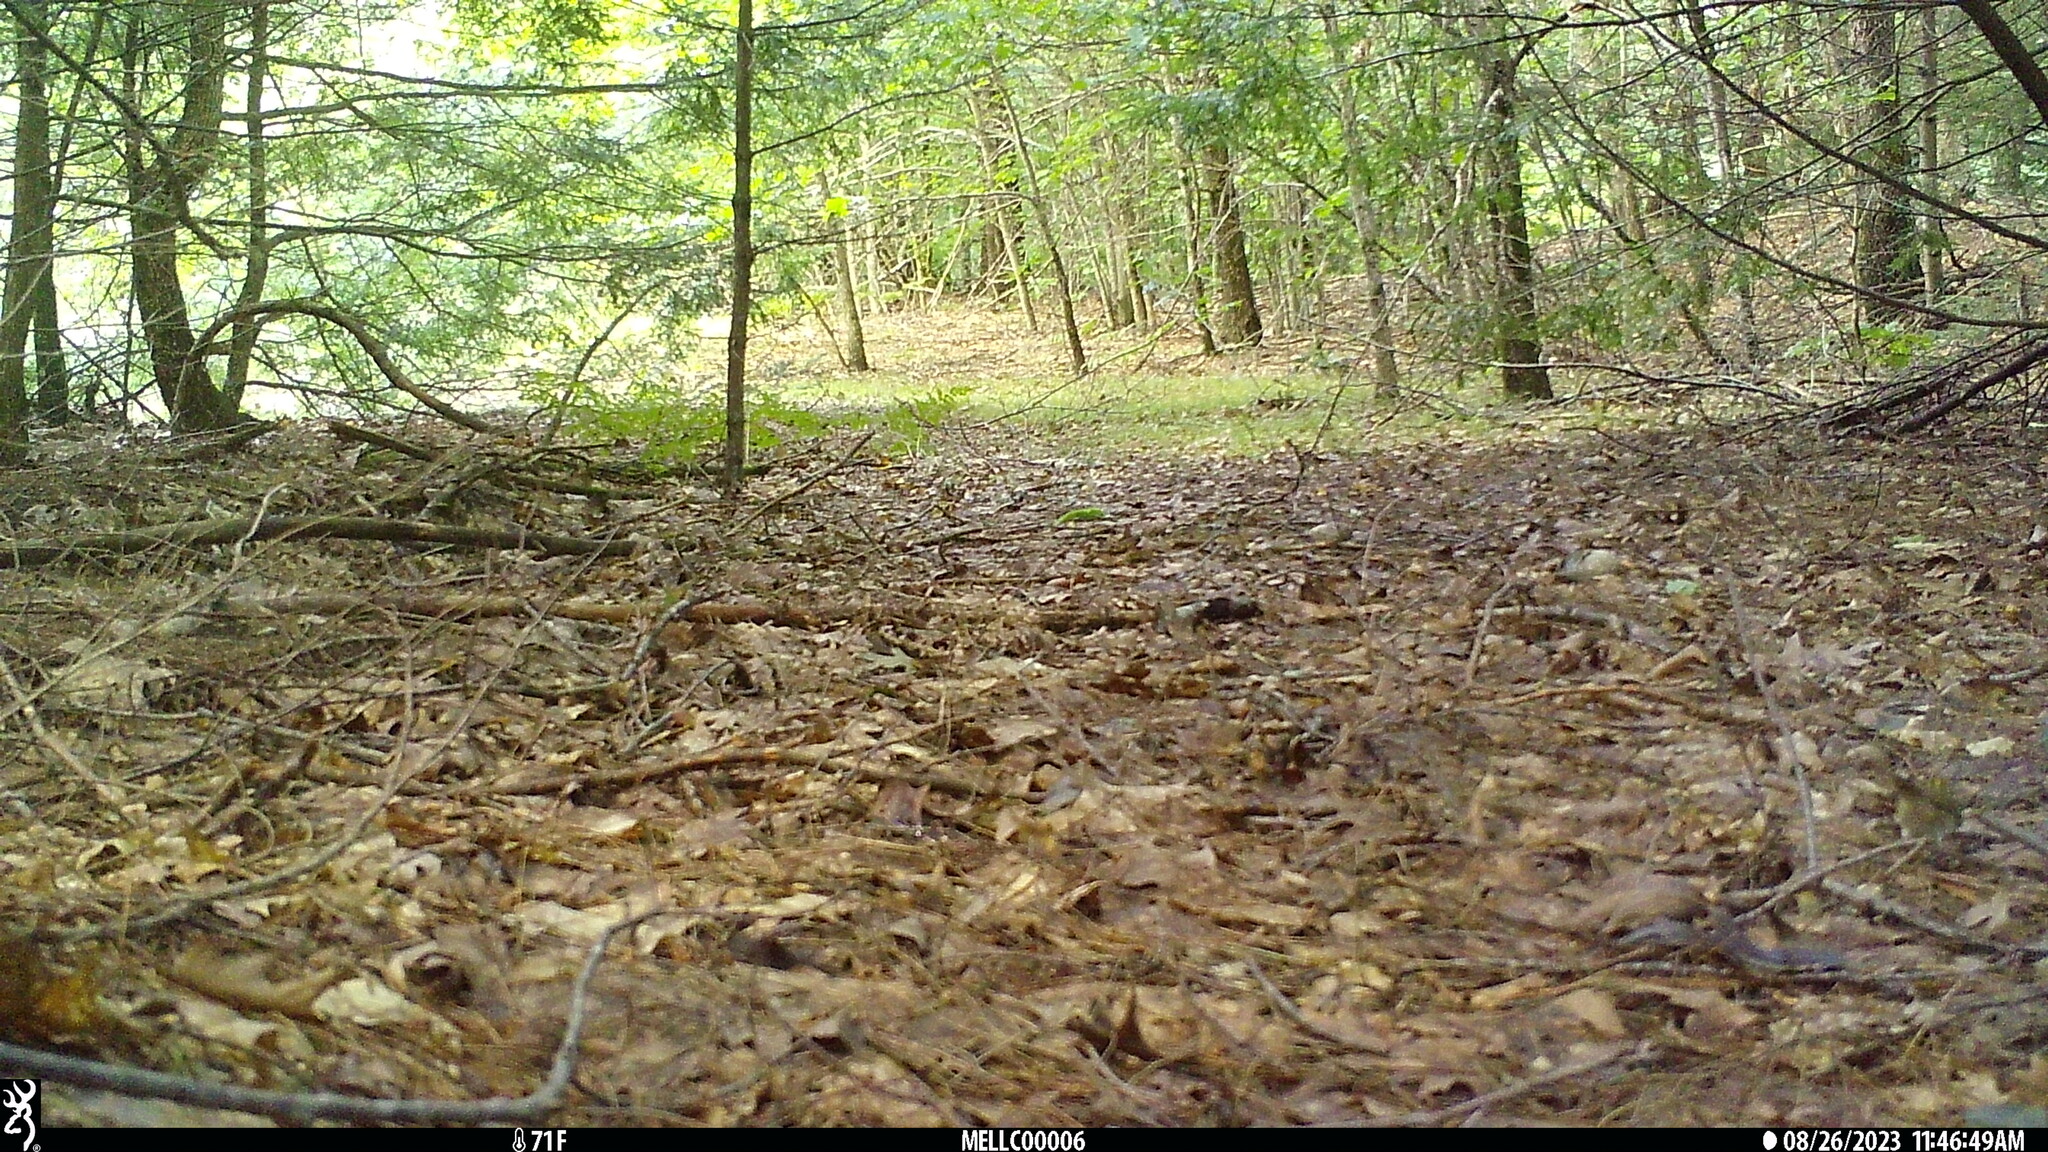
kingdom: Animalia
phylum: Chordata
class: Aves
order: Passeriformes
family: Parulidae
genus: Seiurus
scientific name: Seiurus aurocapilla
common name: Ovenbird
